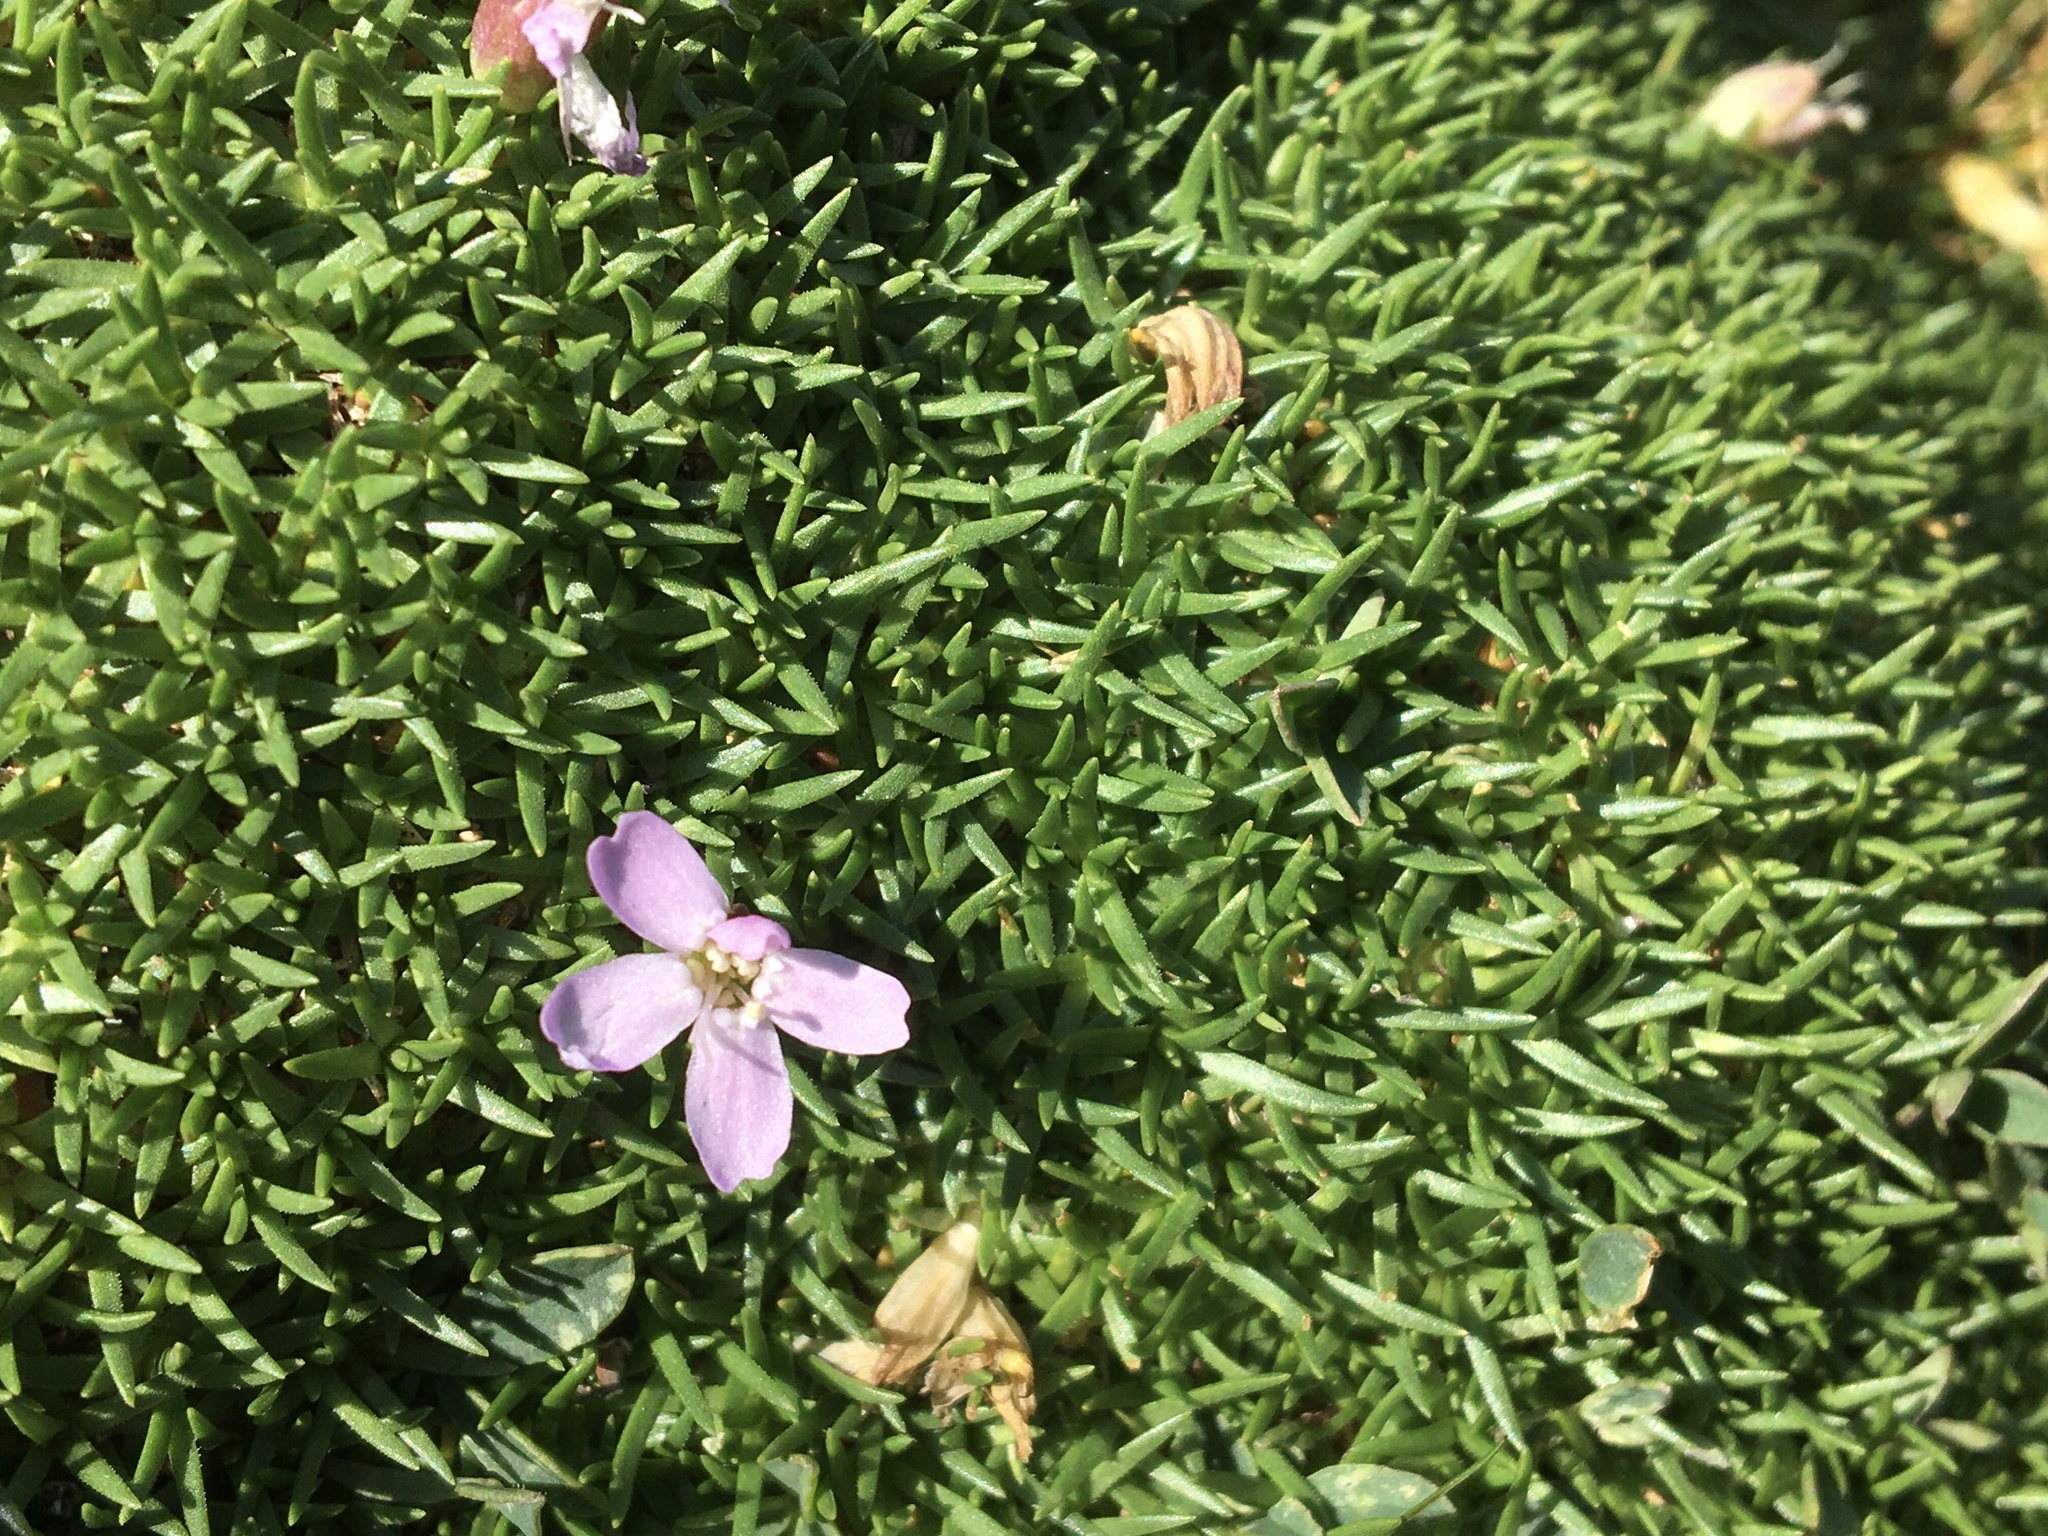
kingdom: Plantae
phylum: Tracheophyta
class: Magnoliopsida
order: Caryophyllales
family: Caryophyllaceae
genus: Silene
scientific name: Silene acaulis
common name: Moss campion
